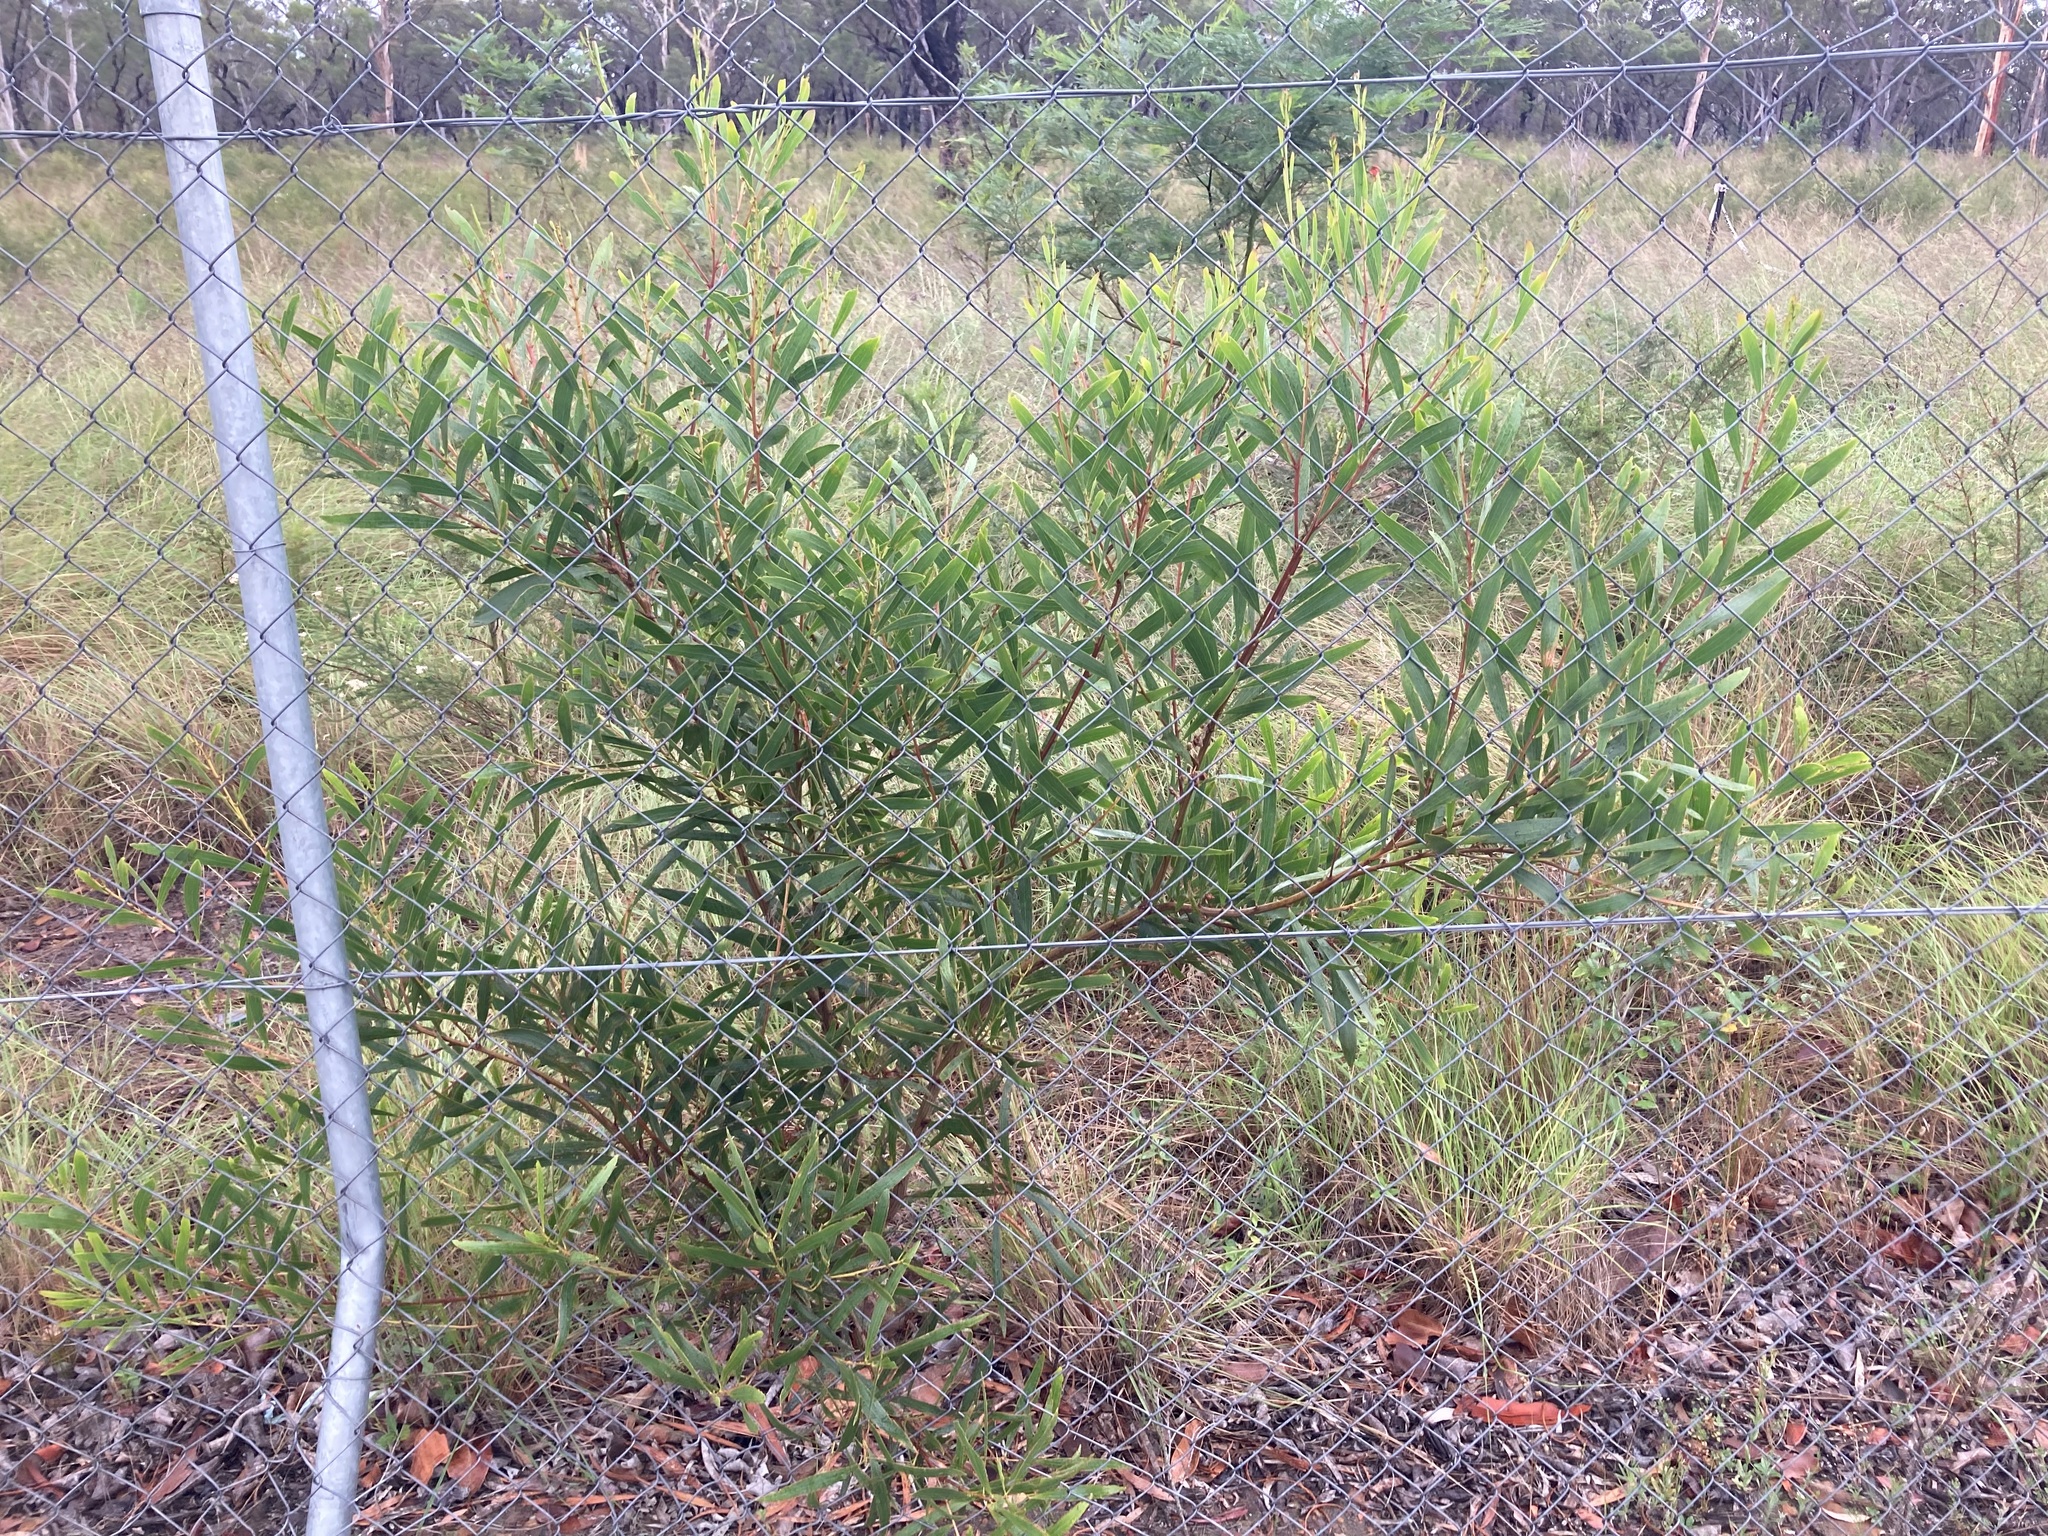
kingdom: Plantae
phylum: Tracheophyta
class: Magnoliopsida
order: Fabales
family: Fabaceae
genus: Acacia
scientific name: Acacia longifolia
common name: Sydney golden wattle
